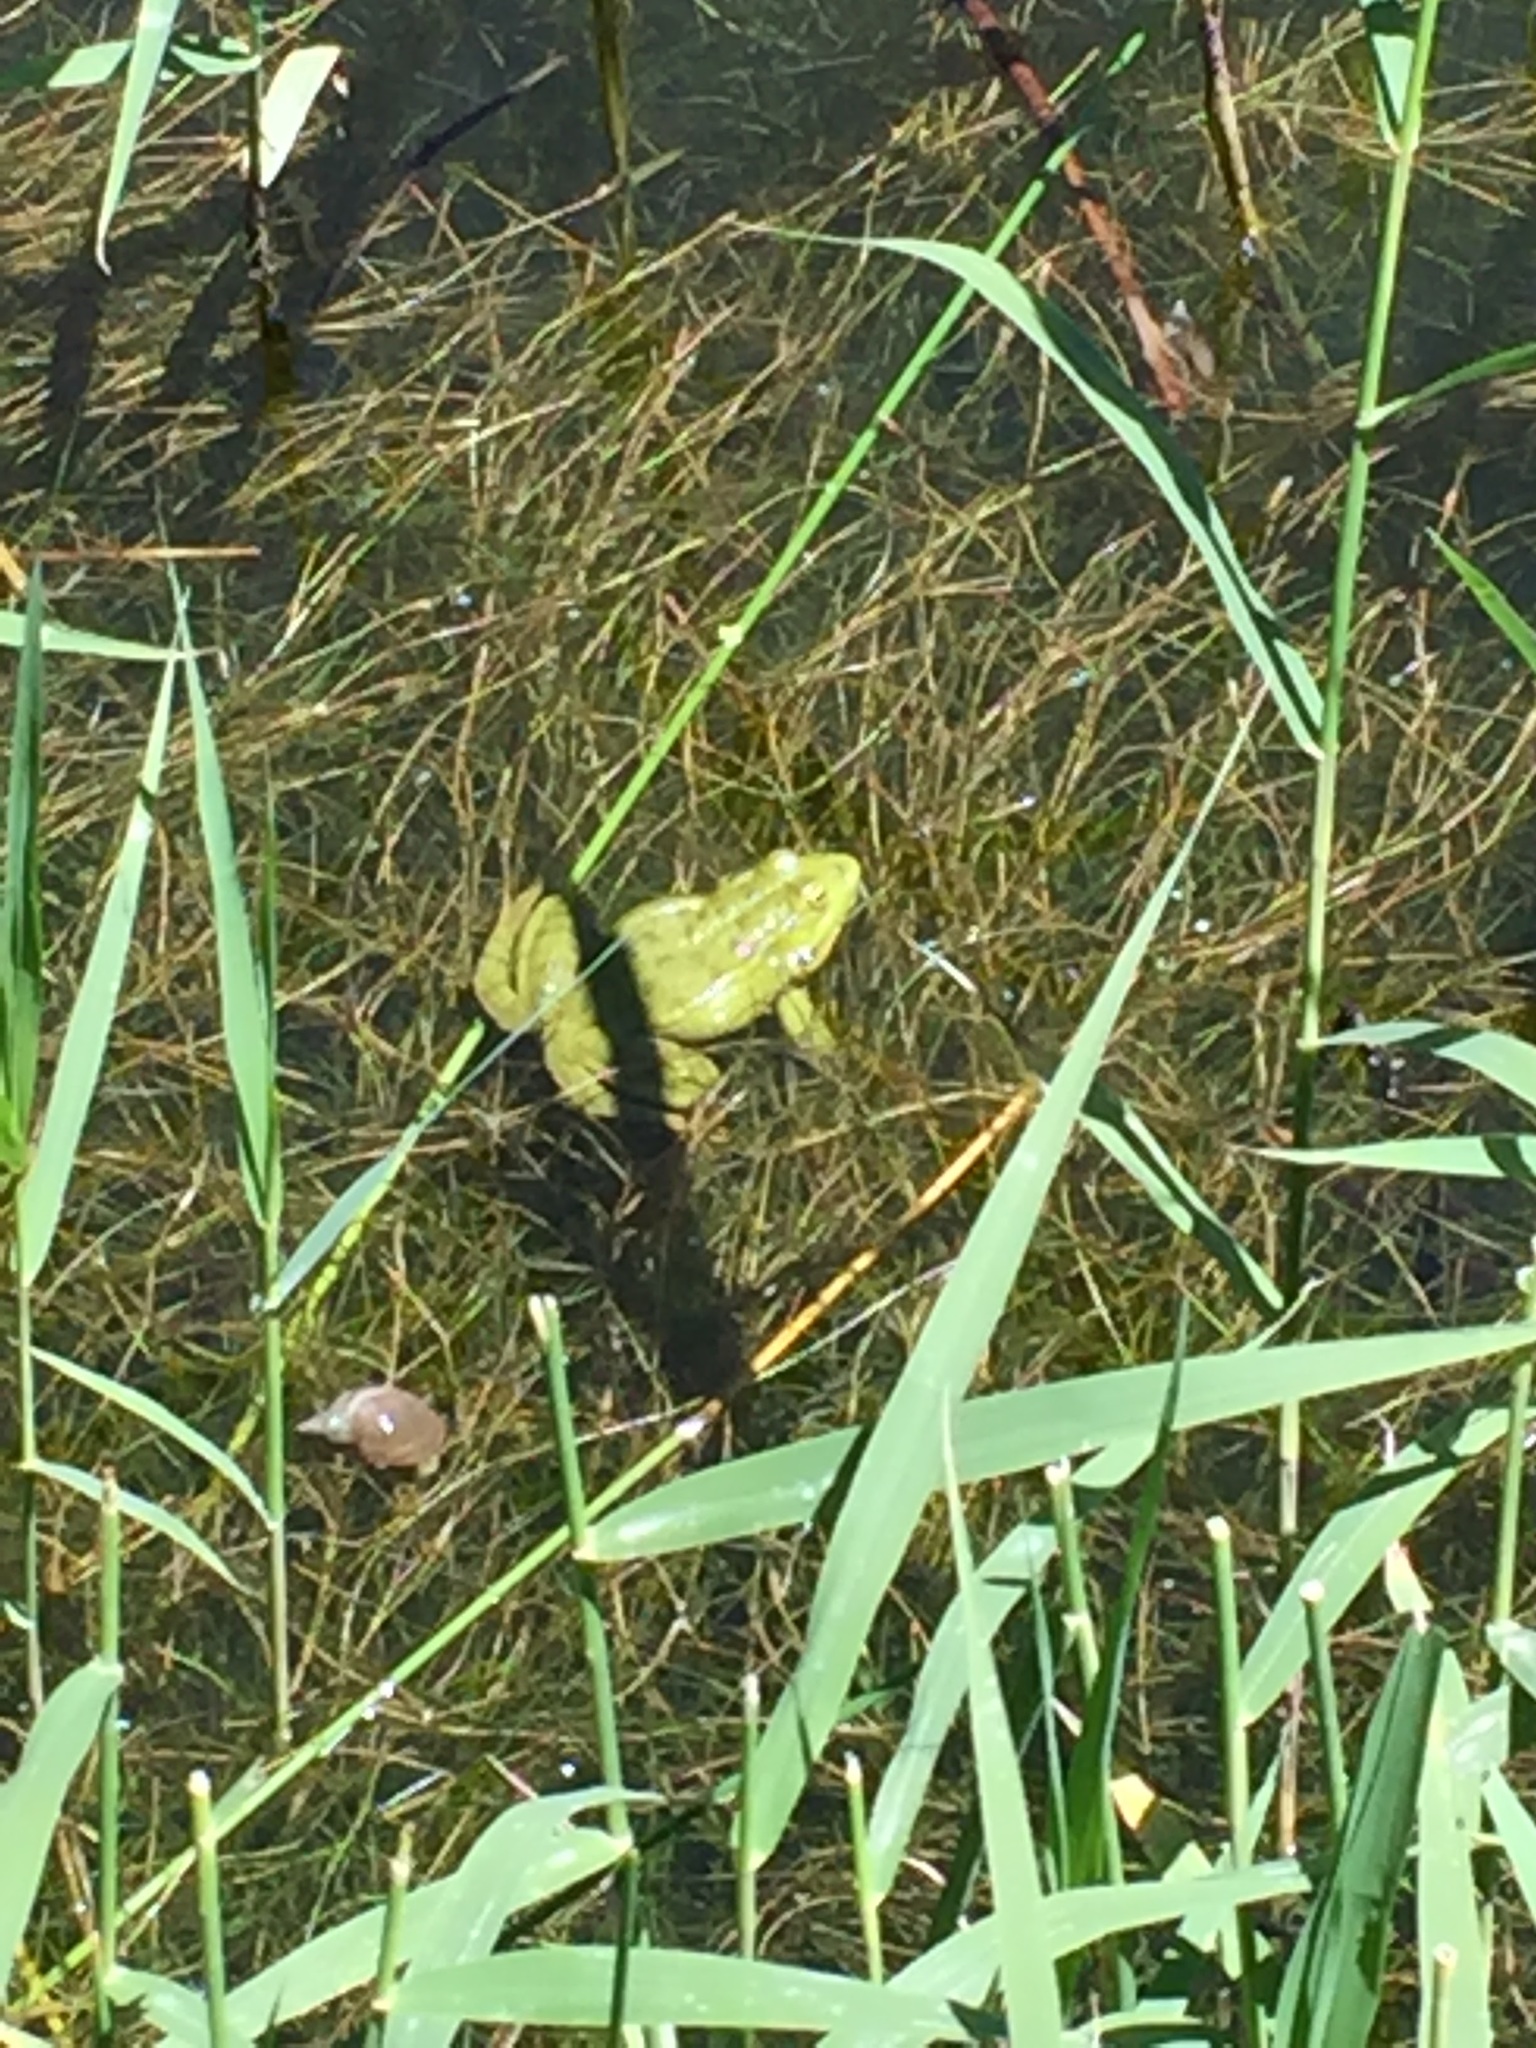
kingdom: Animalia
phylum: Chordata
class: Amphibia
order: Anura
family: Ranidae
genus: Pelophylax
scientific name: Pelophylax ridibundus
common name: Marsh frog
